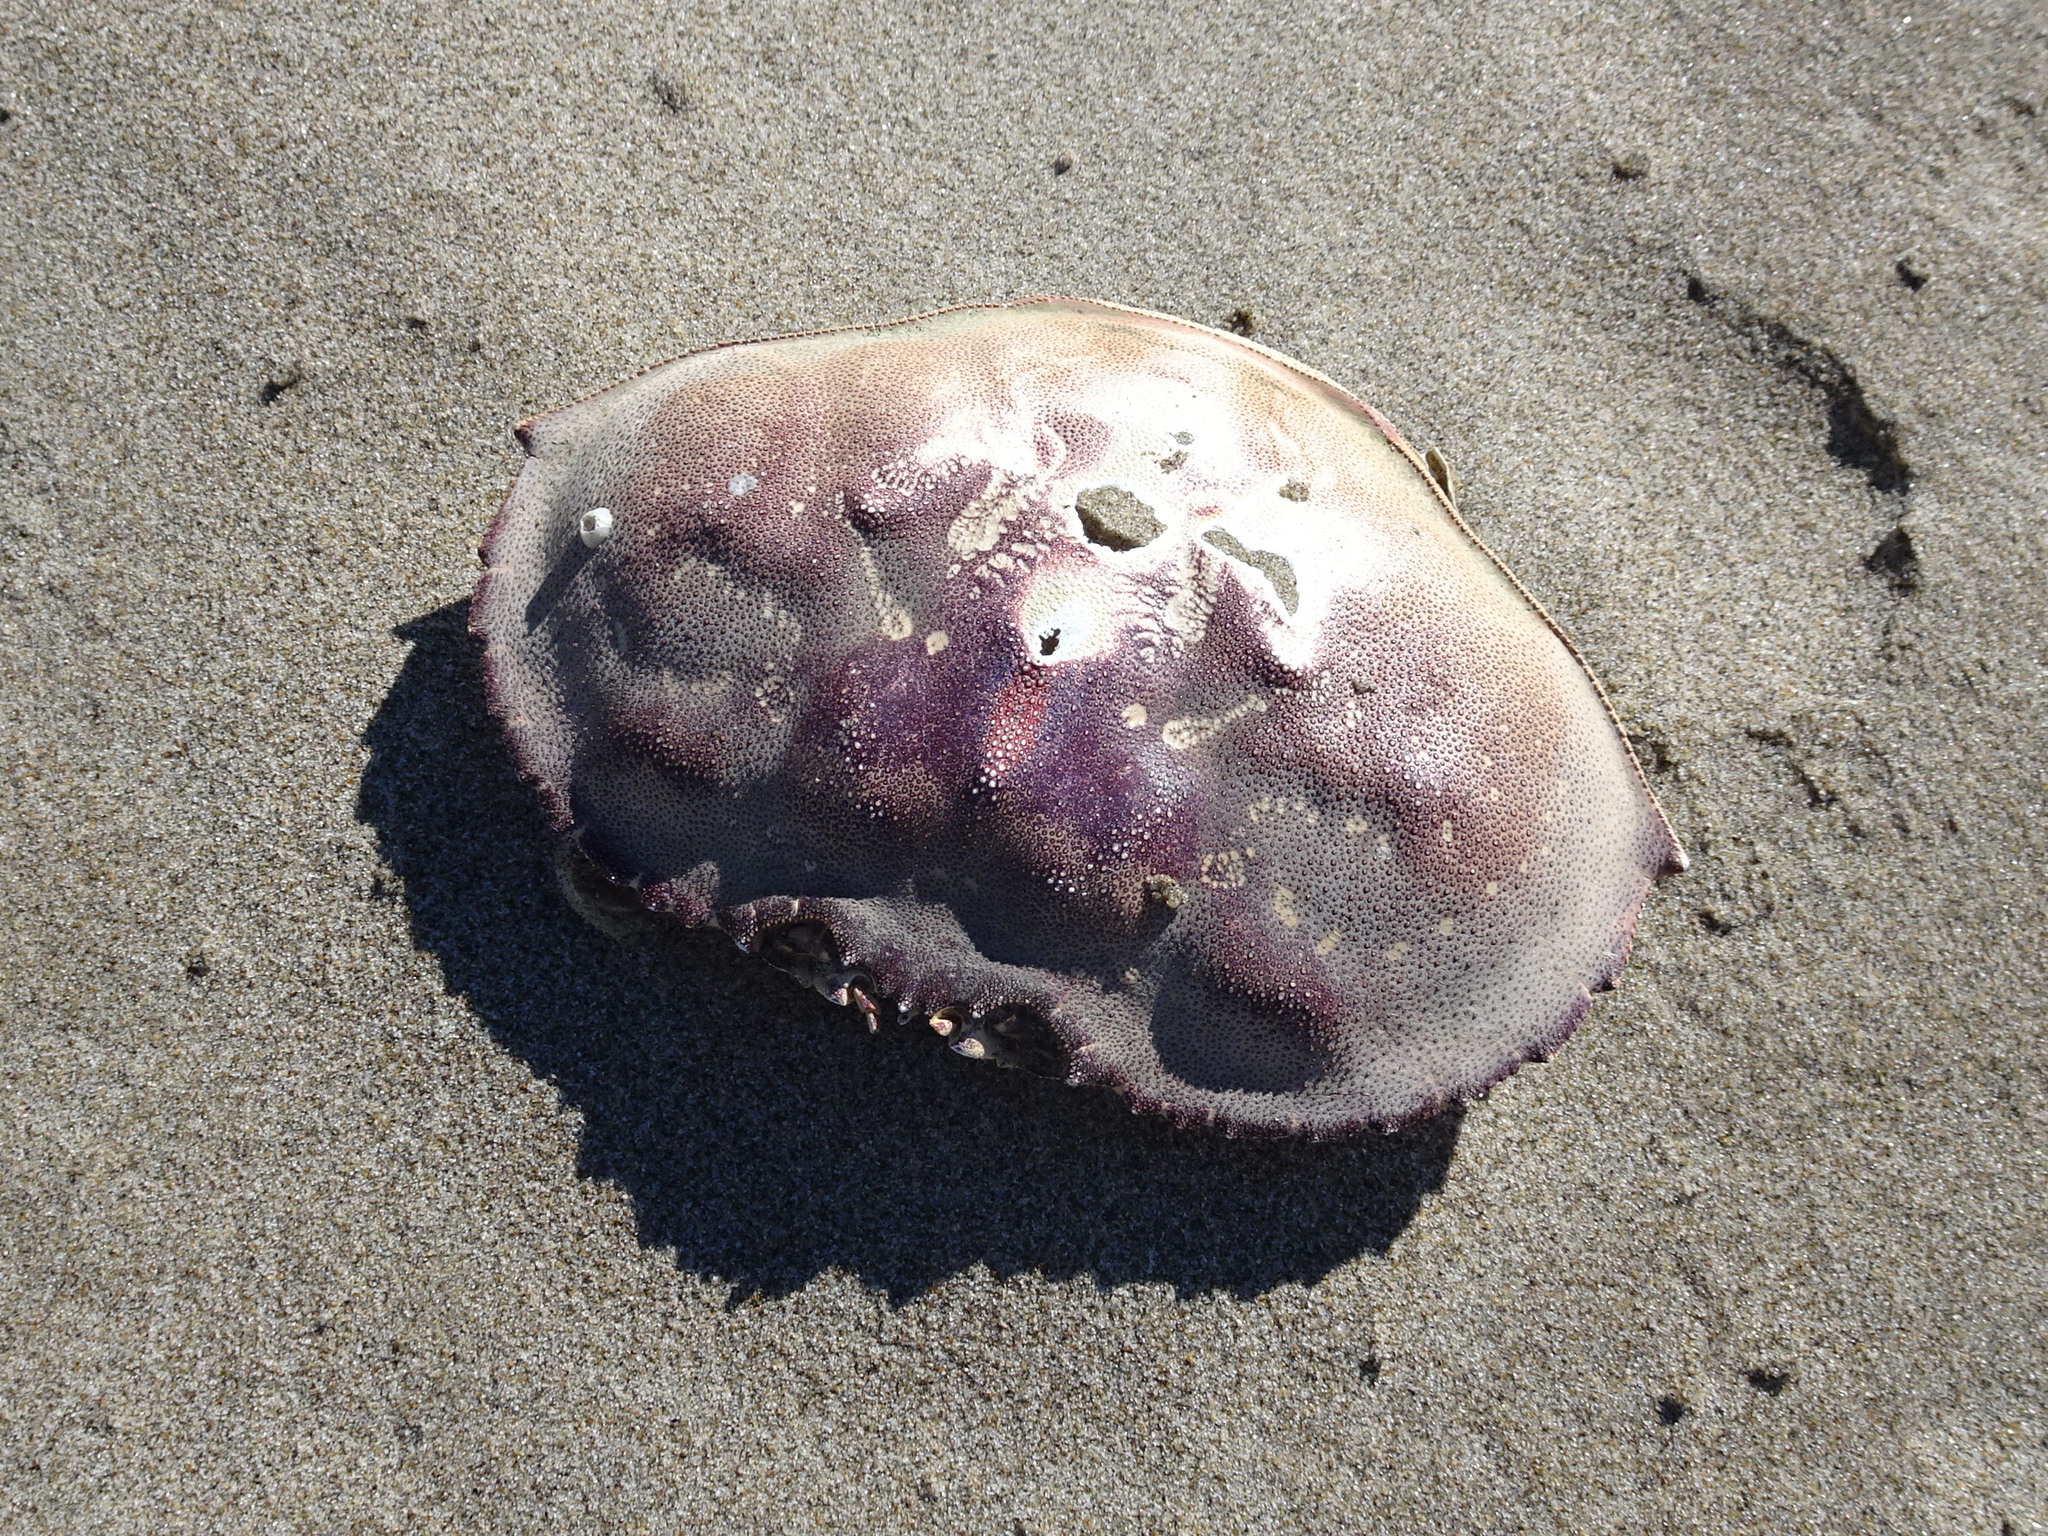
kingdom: Animalia
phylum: Arthropoda
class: Malacostraca
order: Decapoda
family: Cancridae
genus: Metacarcinus
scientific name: Metacarcinus magister
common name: Californian crab
